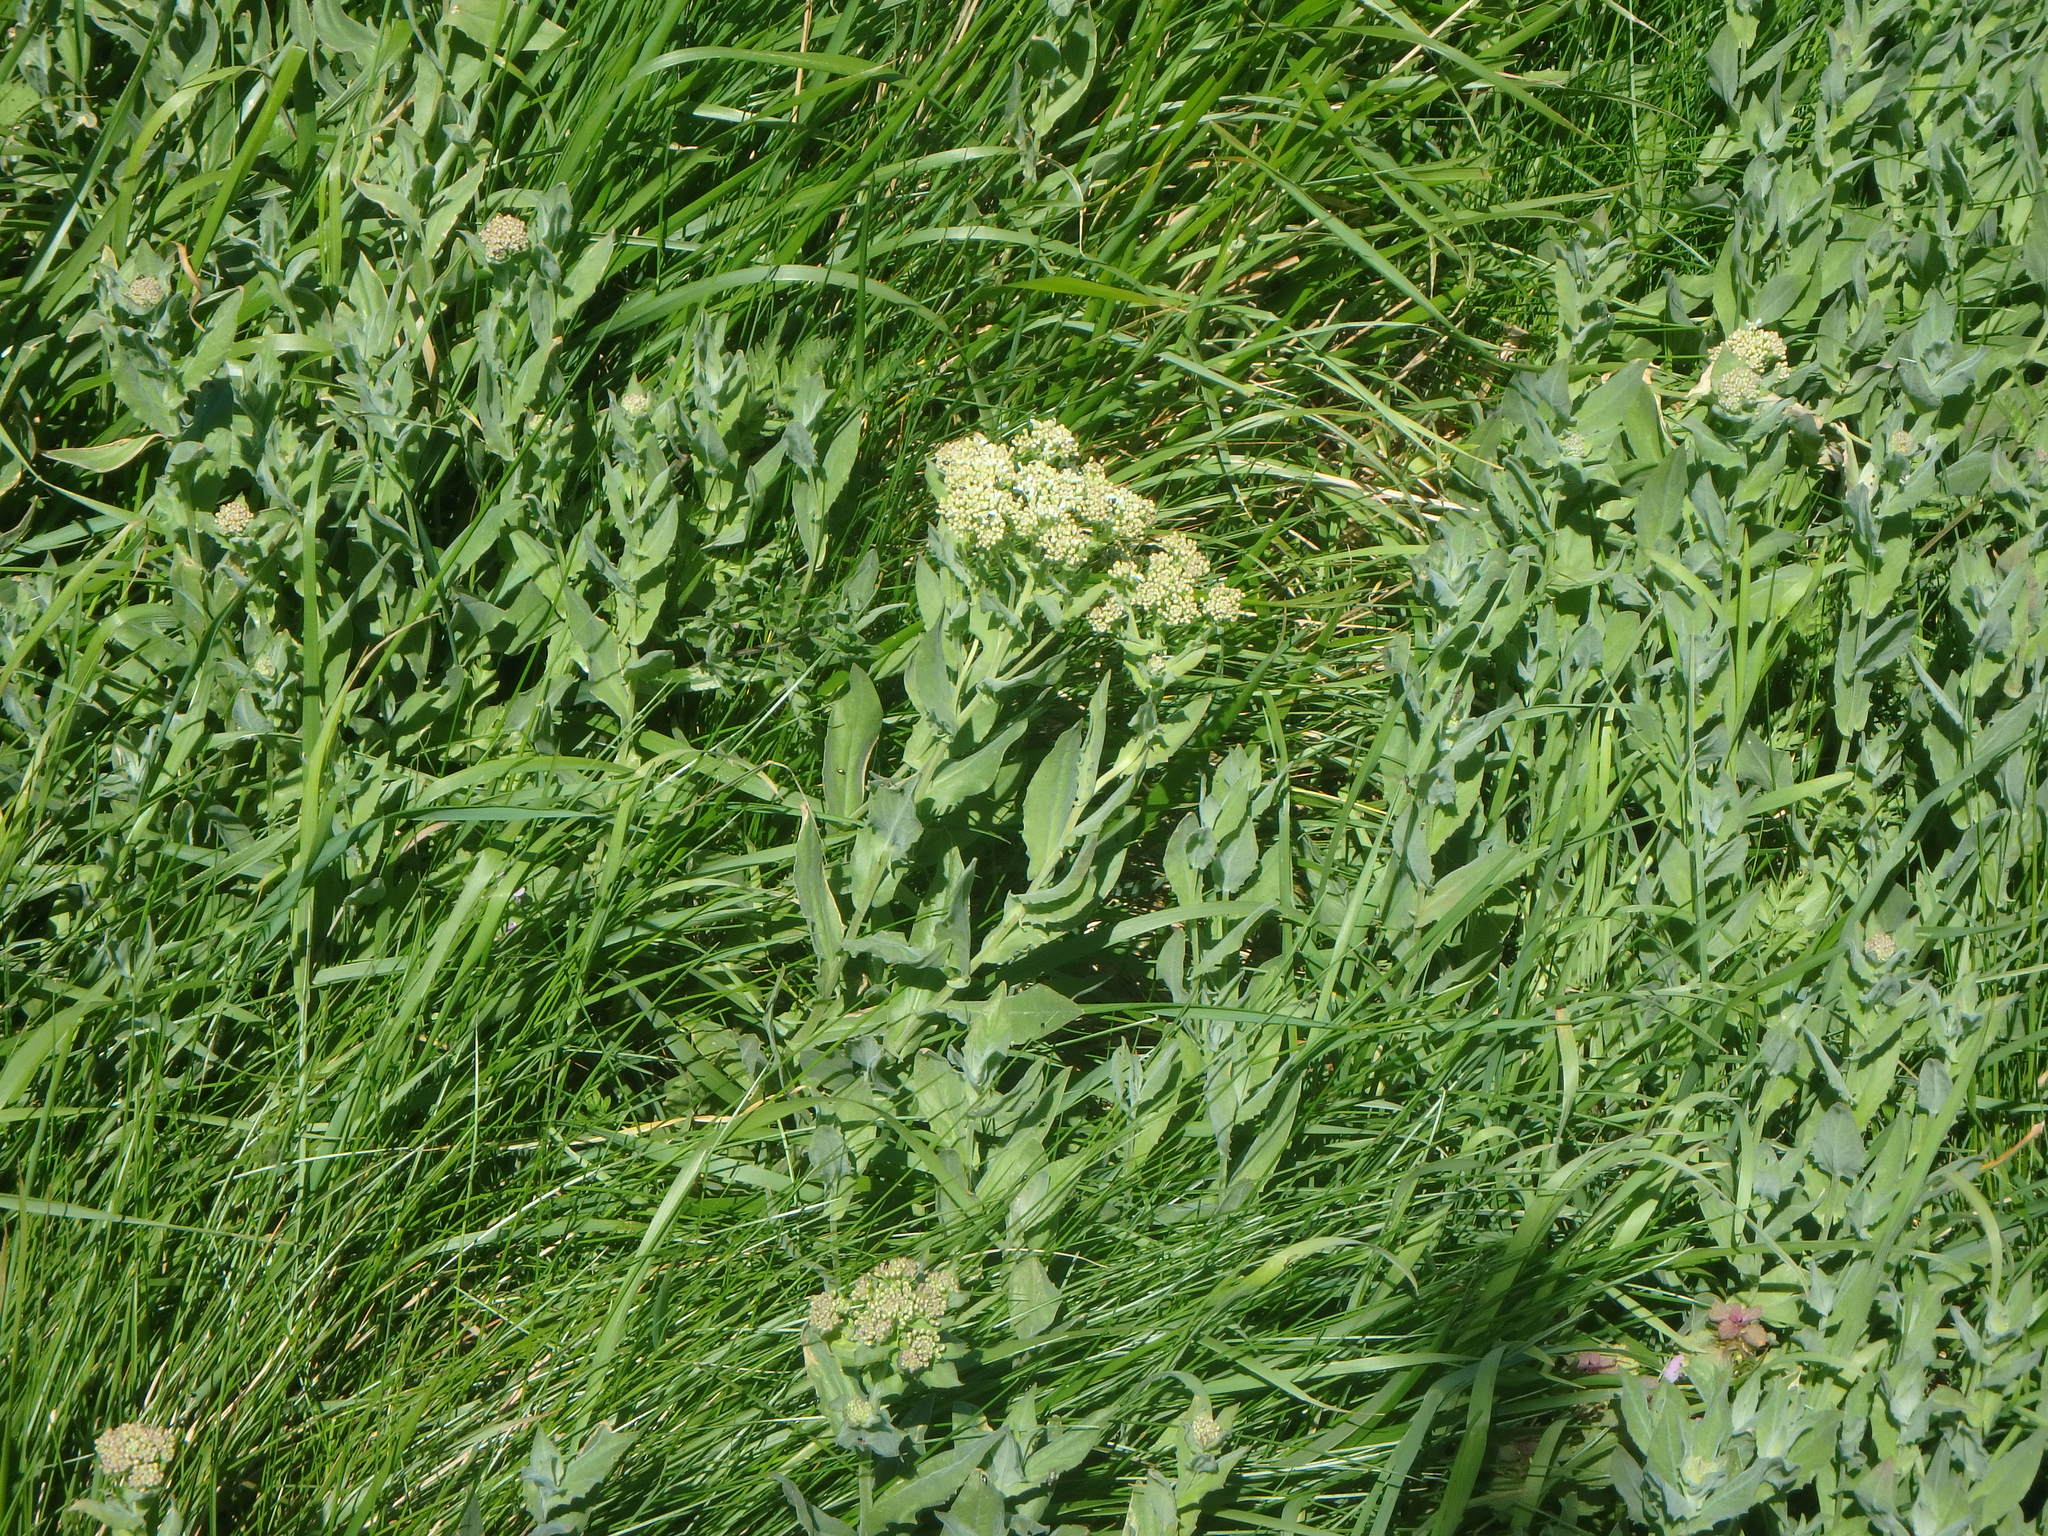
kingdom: Plantae
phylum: Tracheophyta
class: Magnoliopsida
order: Brassicales
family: Brassicaceae
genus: Lepidium
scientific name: Lepidium draba
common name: Hoary cress
